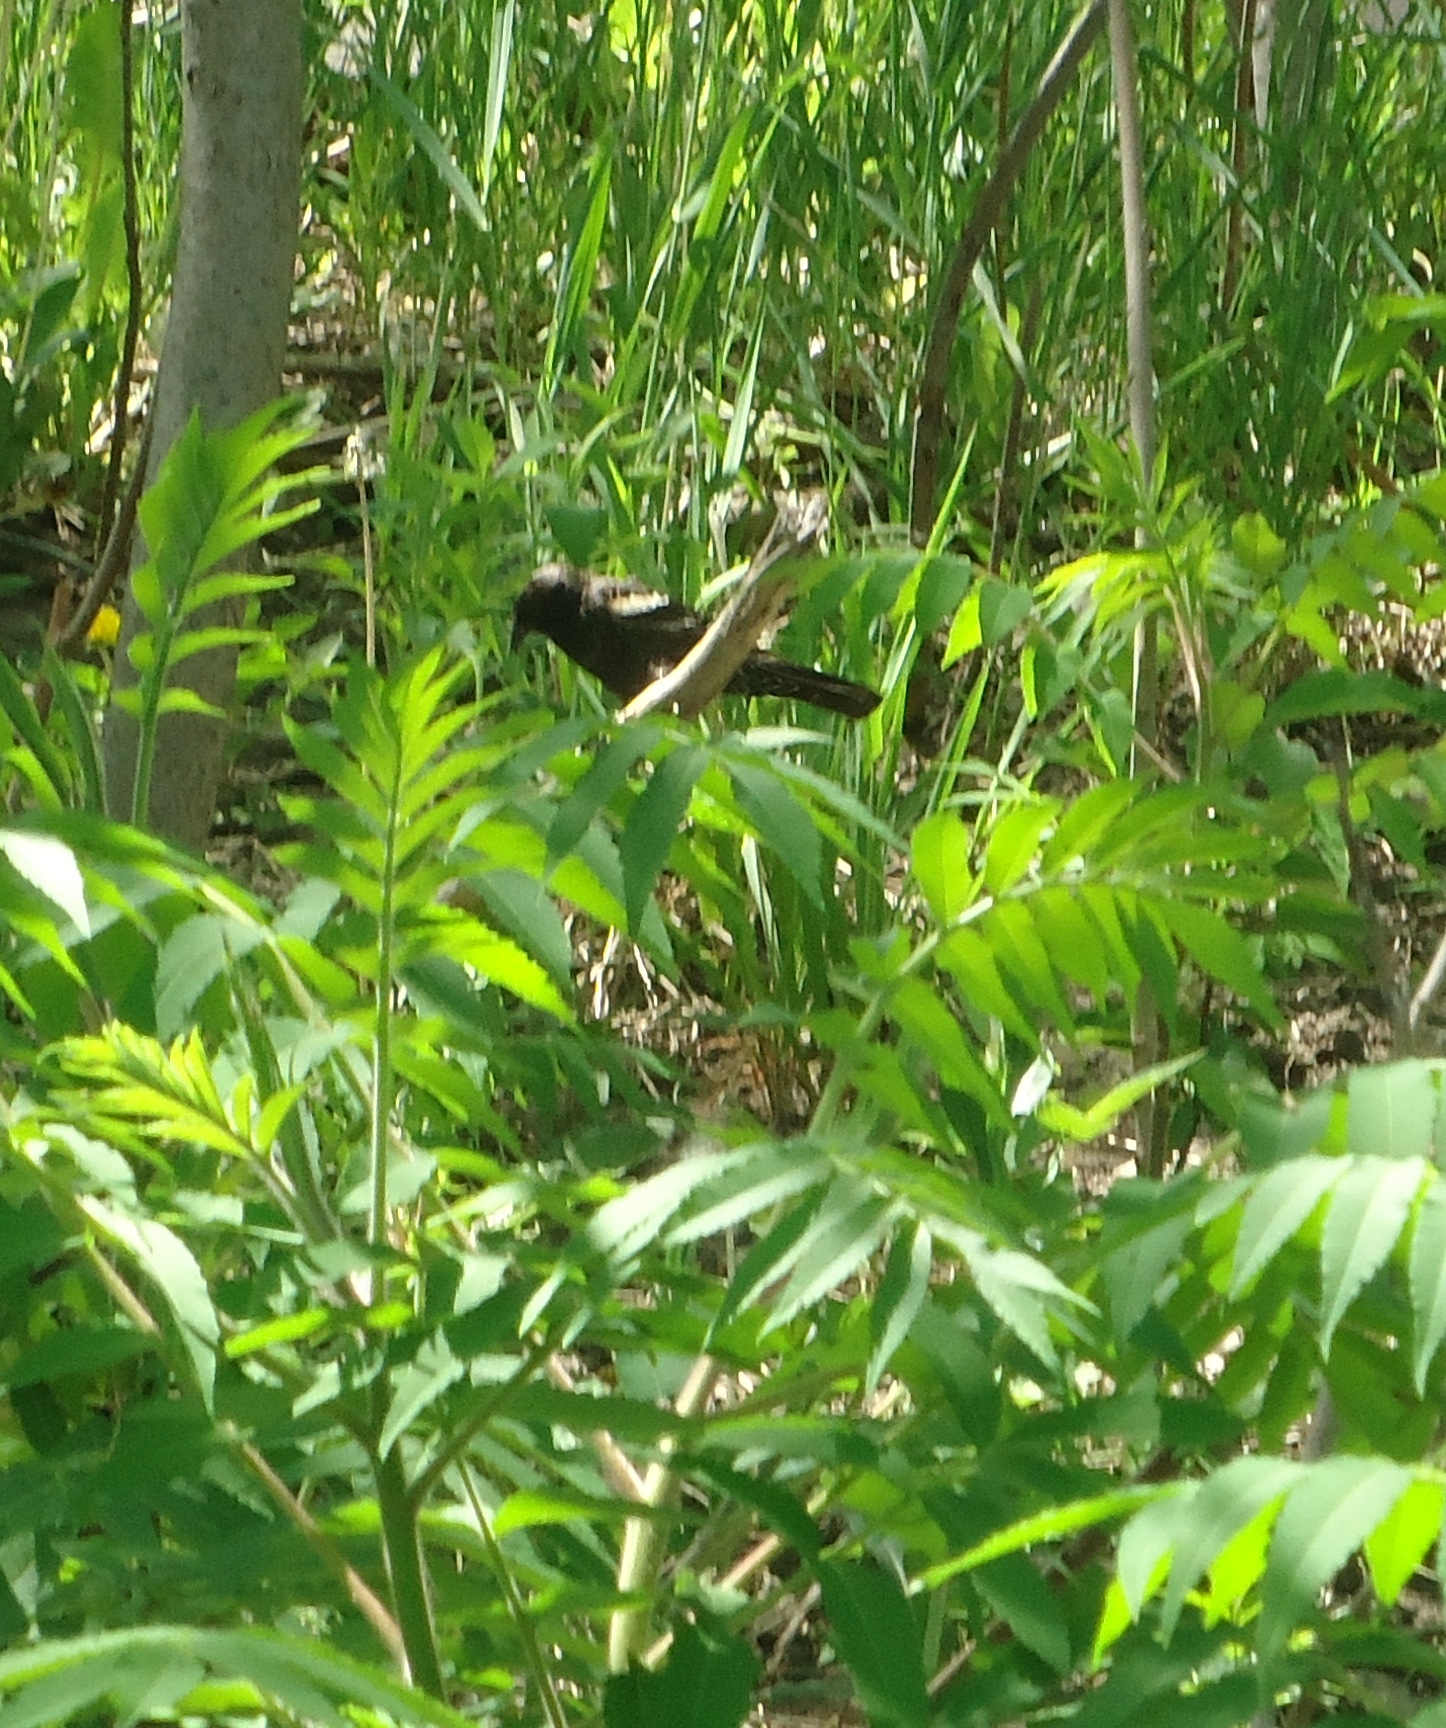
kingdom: Animalia
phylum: Chordata
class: Aves
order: Passeriformes
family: Icteridae
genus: Agelaius
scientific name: Agelaius phoeniceus
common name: Red-winged blackbird
